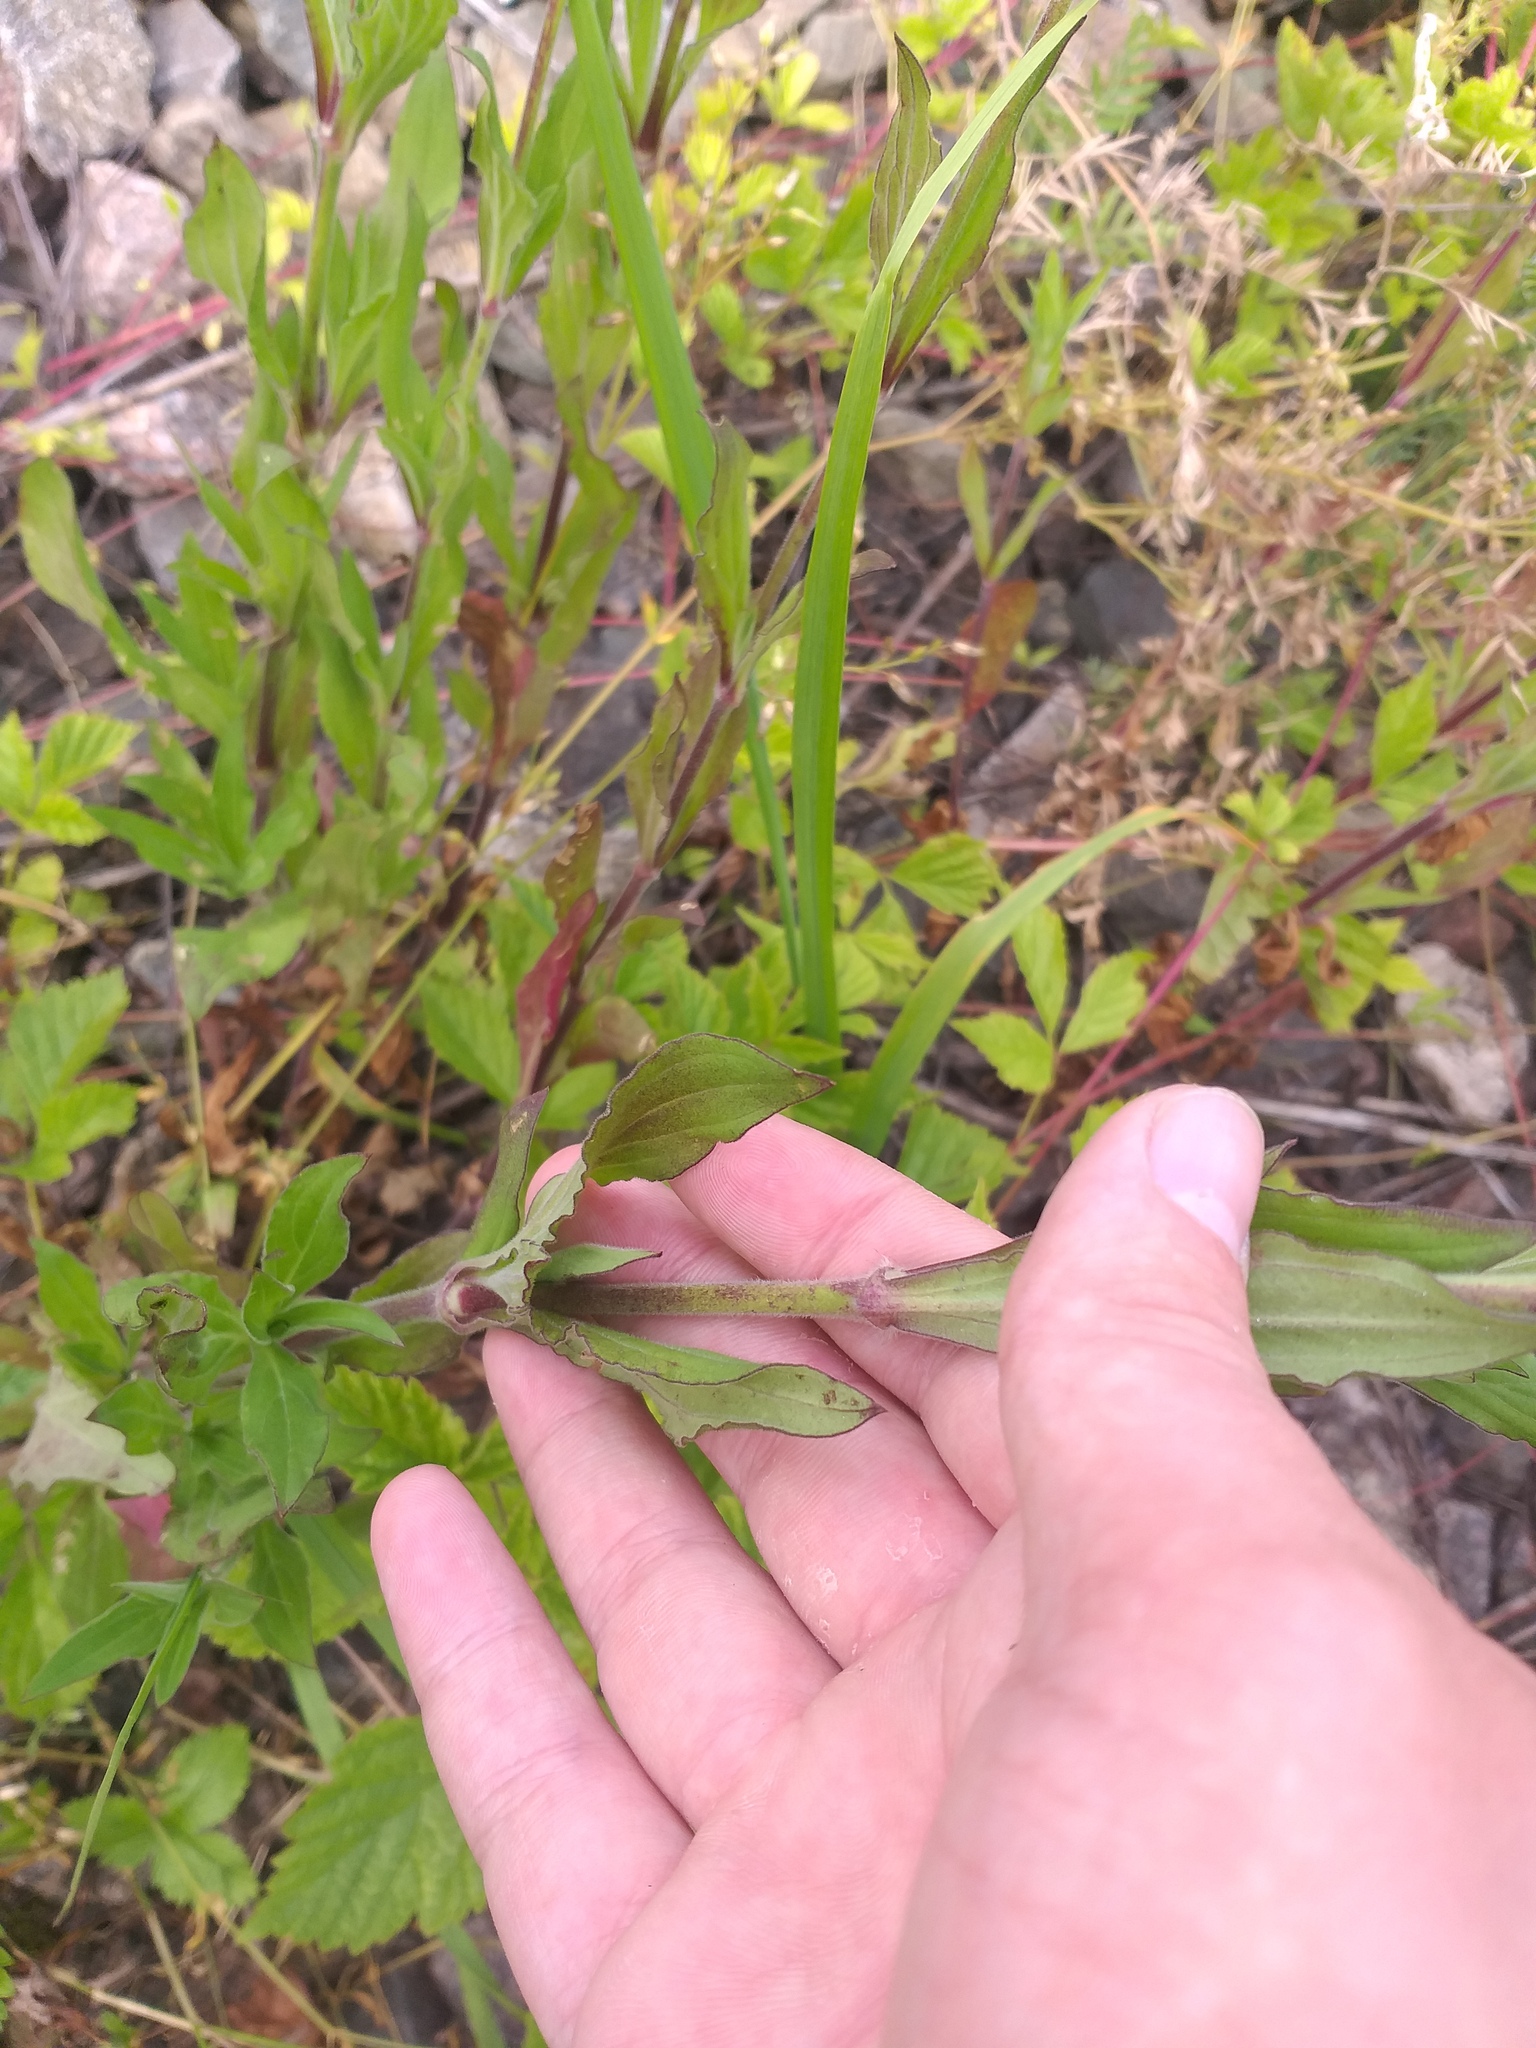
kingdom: Plantae
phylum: Tracheophyta
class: Magnoliopsida
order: Caryophyllales
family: Caryophyllaceae
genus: Silene
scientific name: Silene latifolia
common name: White campion
